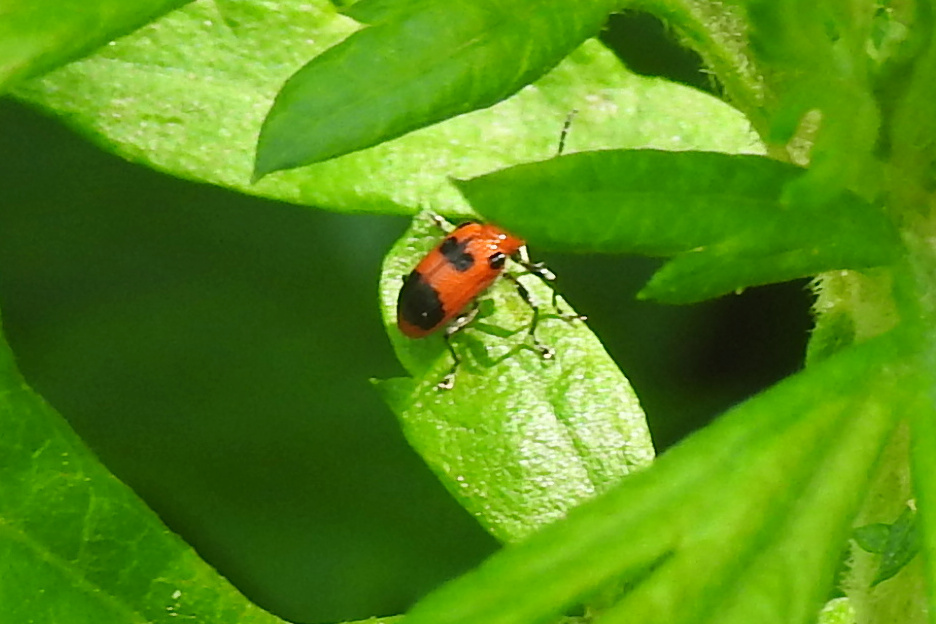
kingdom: Animalia
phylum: Arthropoda
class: Insecta
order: Coleoptera
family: Chrysomelidae
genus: Neolema
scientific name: Neolema sexpunctata
